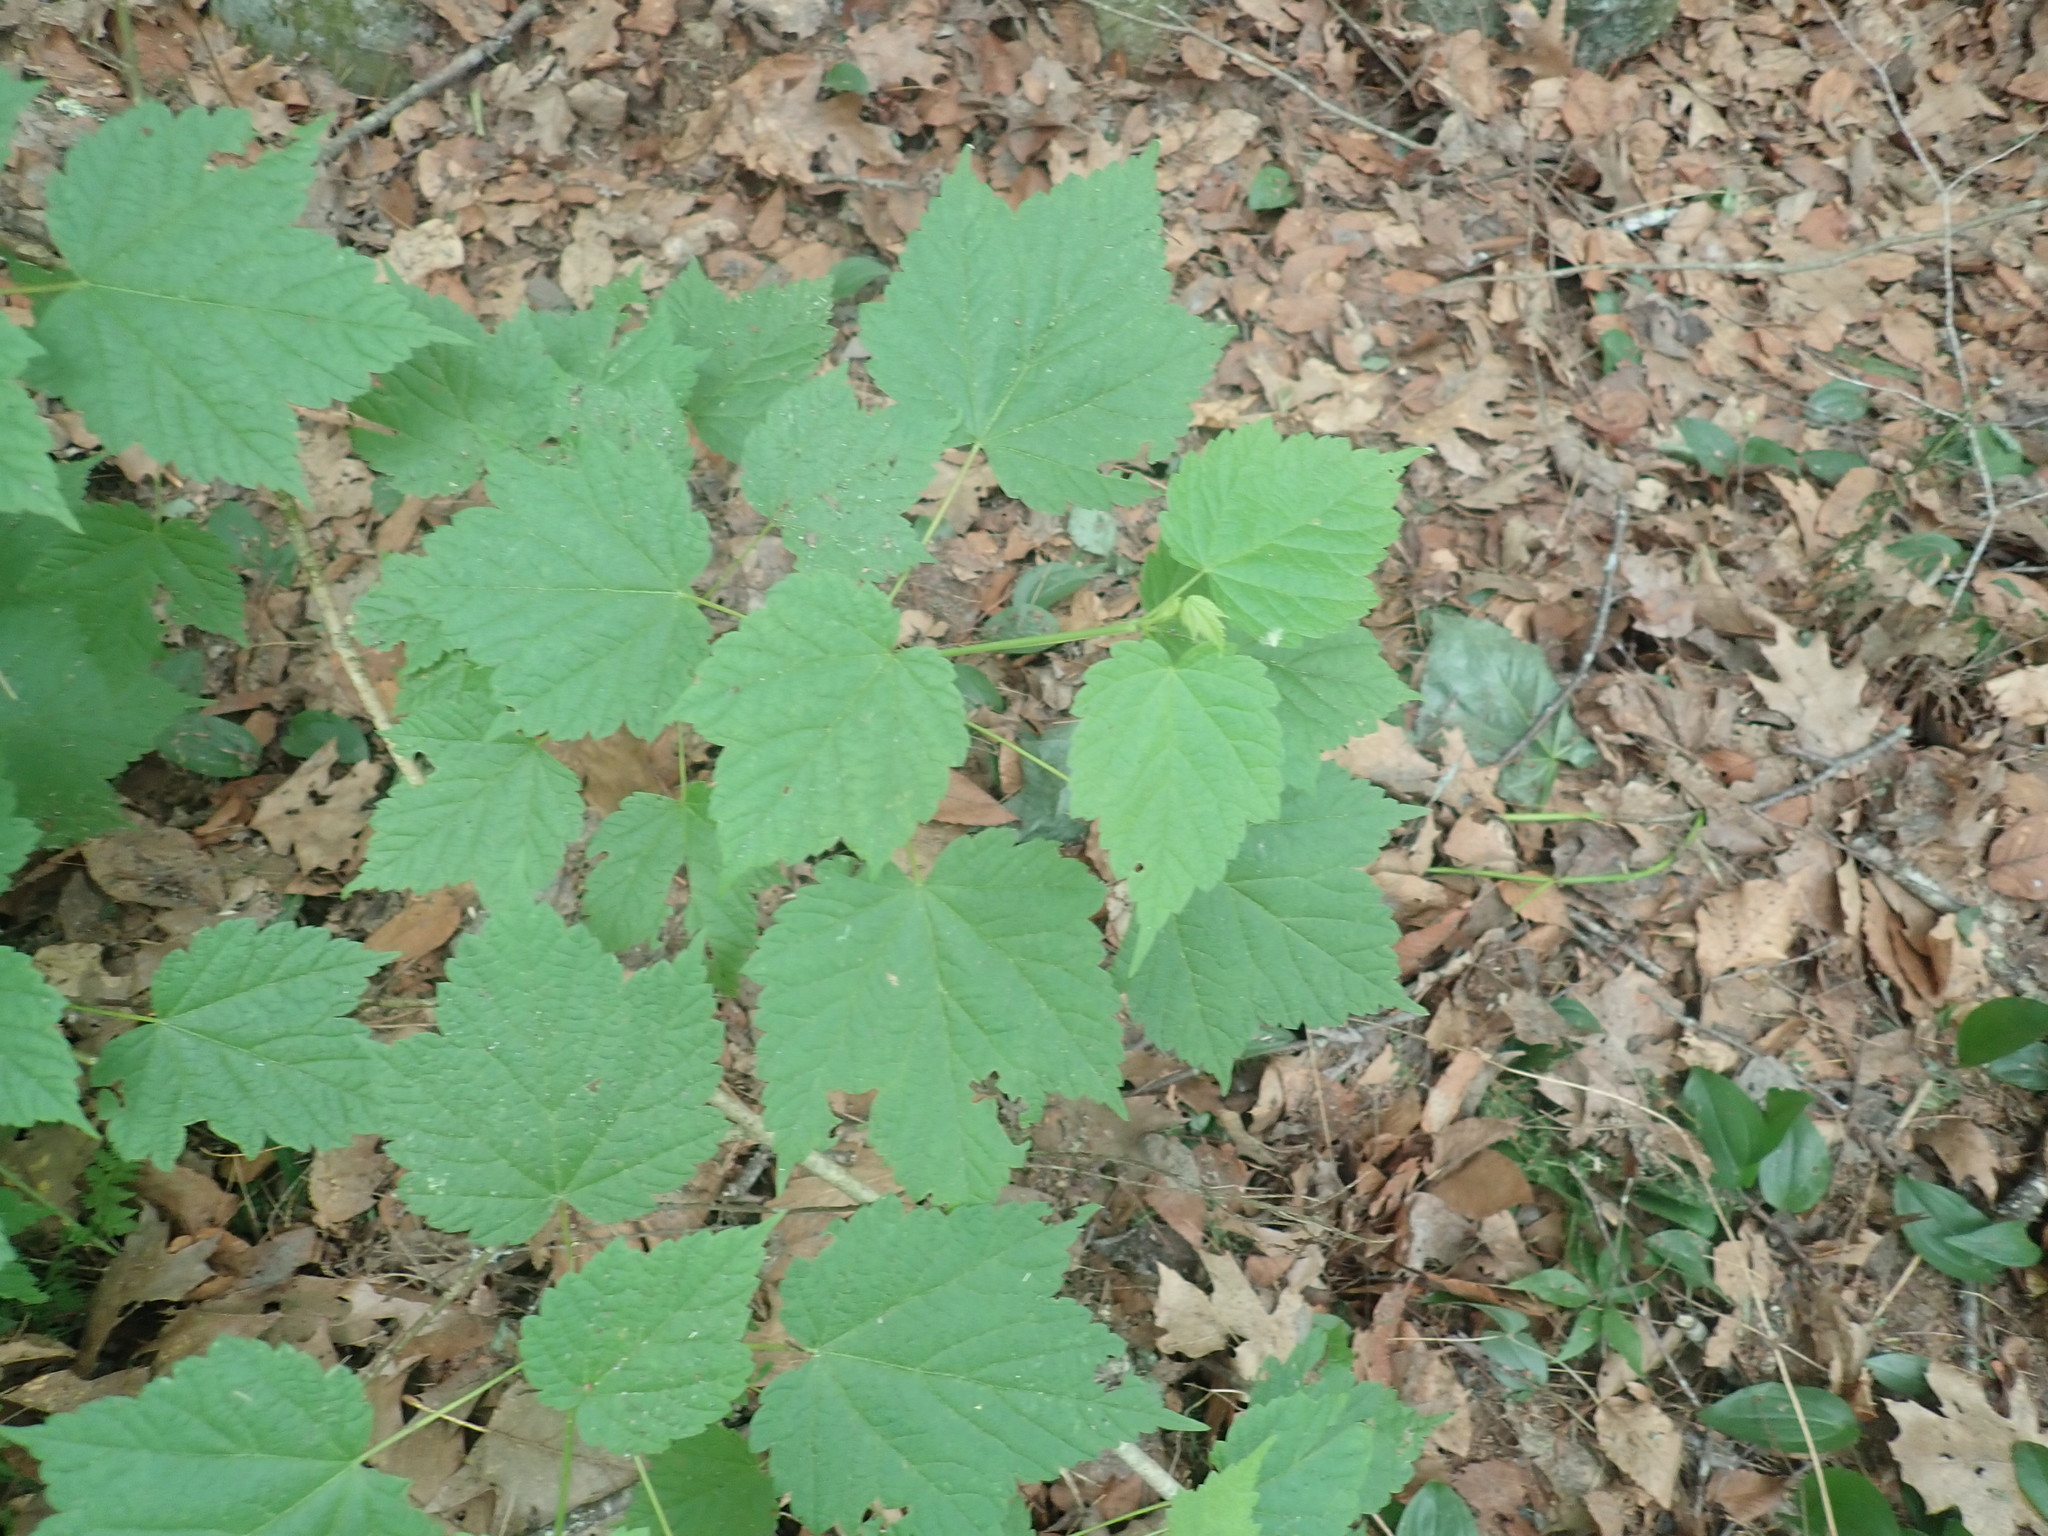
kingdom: Plantae
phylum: Tracheophyta
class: Magnoliopsida
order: Sapindales
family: Sapindaceae
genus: Acer
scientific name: Acer spicatum
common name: Mountain maple
